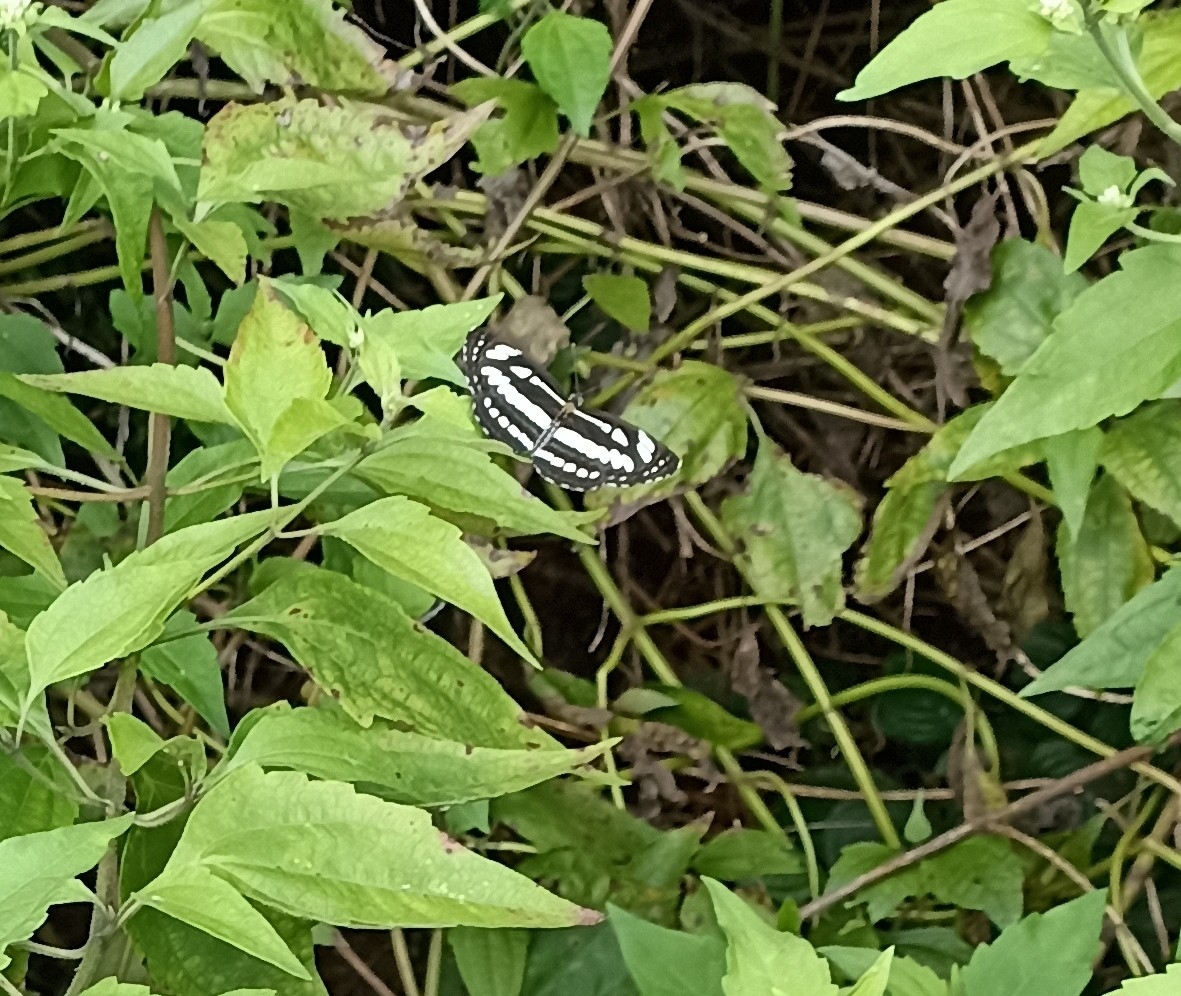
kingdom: Animalia
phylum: Arthropoda
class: Insecta
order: Lepidoptera
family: Nymphalidae
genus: Neptis
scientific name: Neptis hylas
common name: Common sailer
